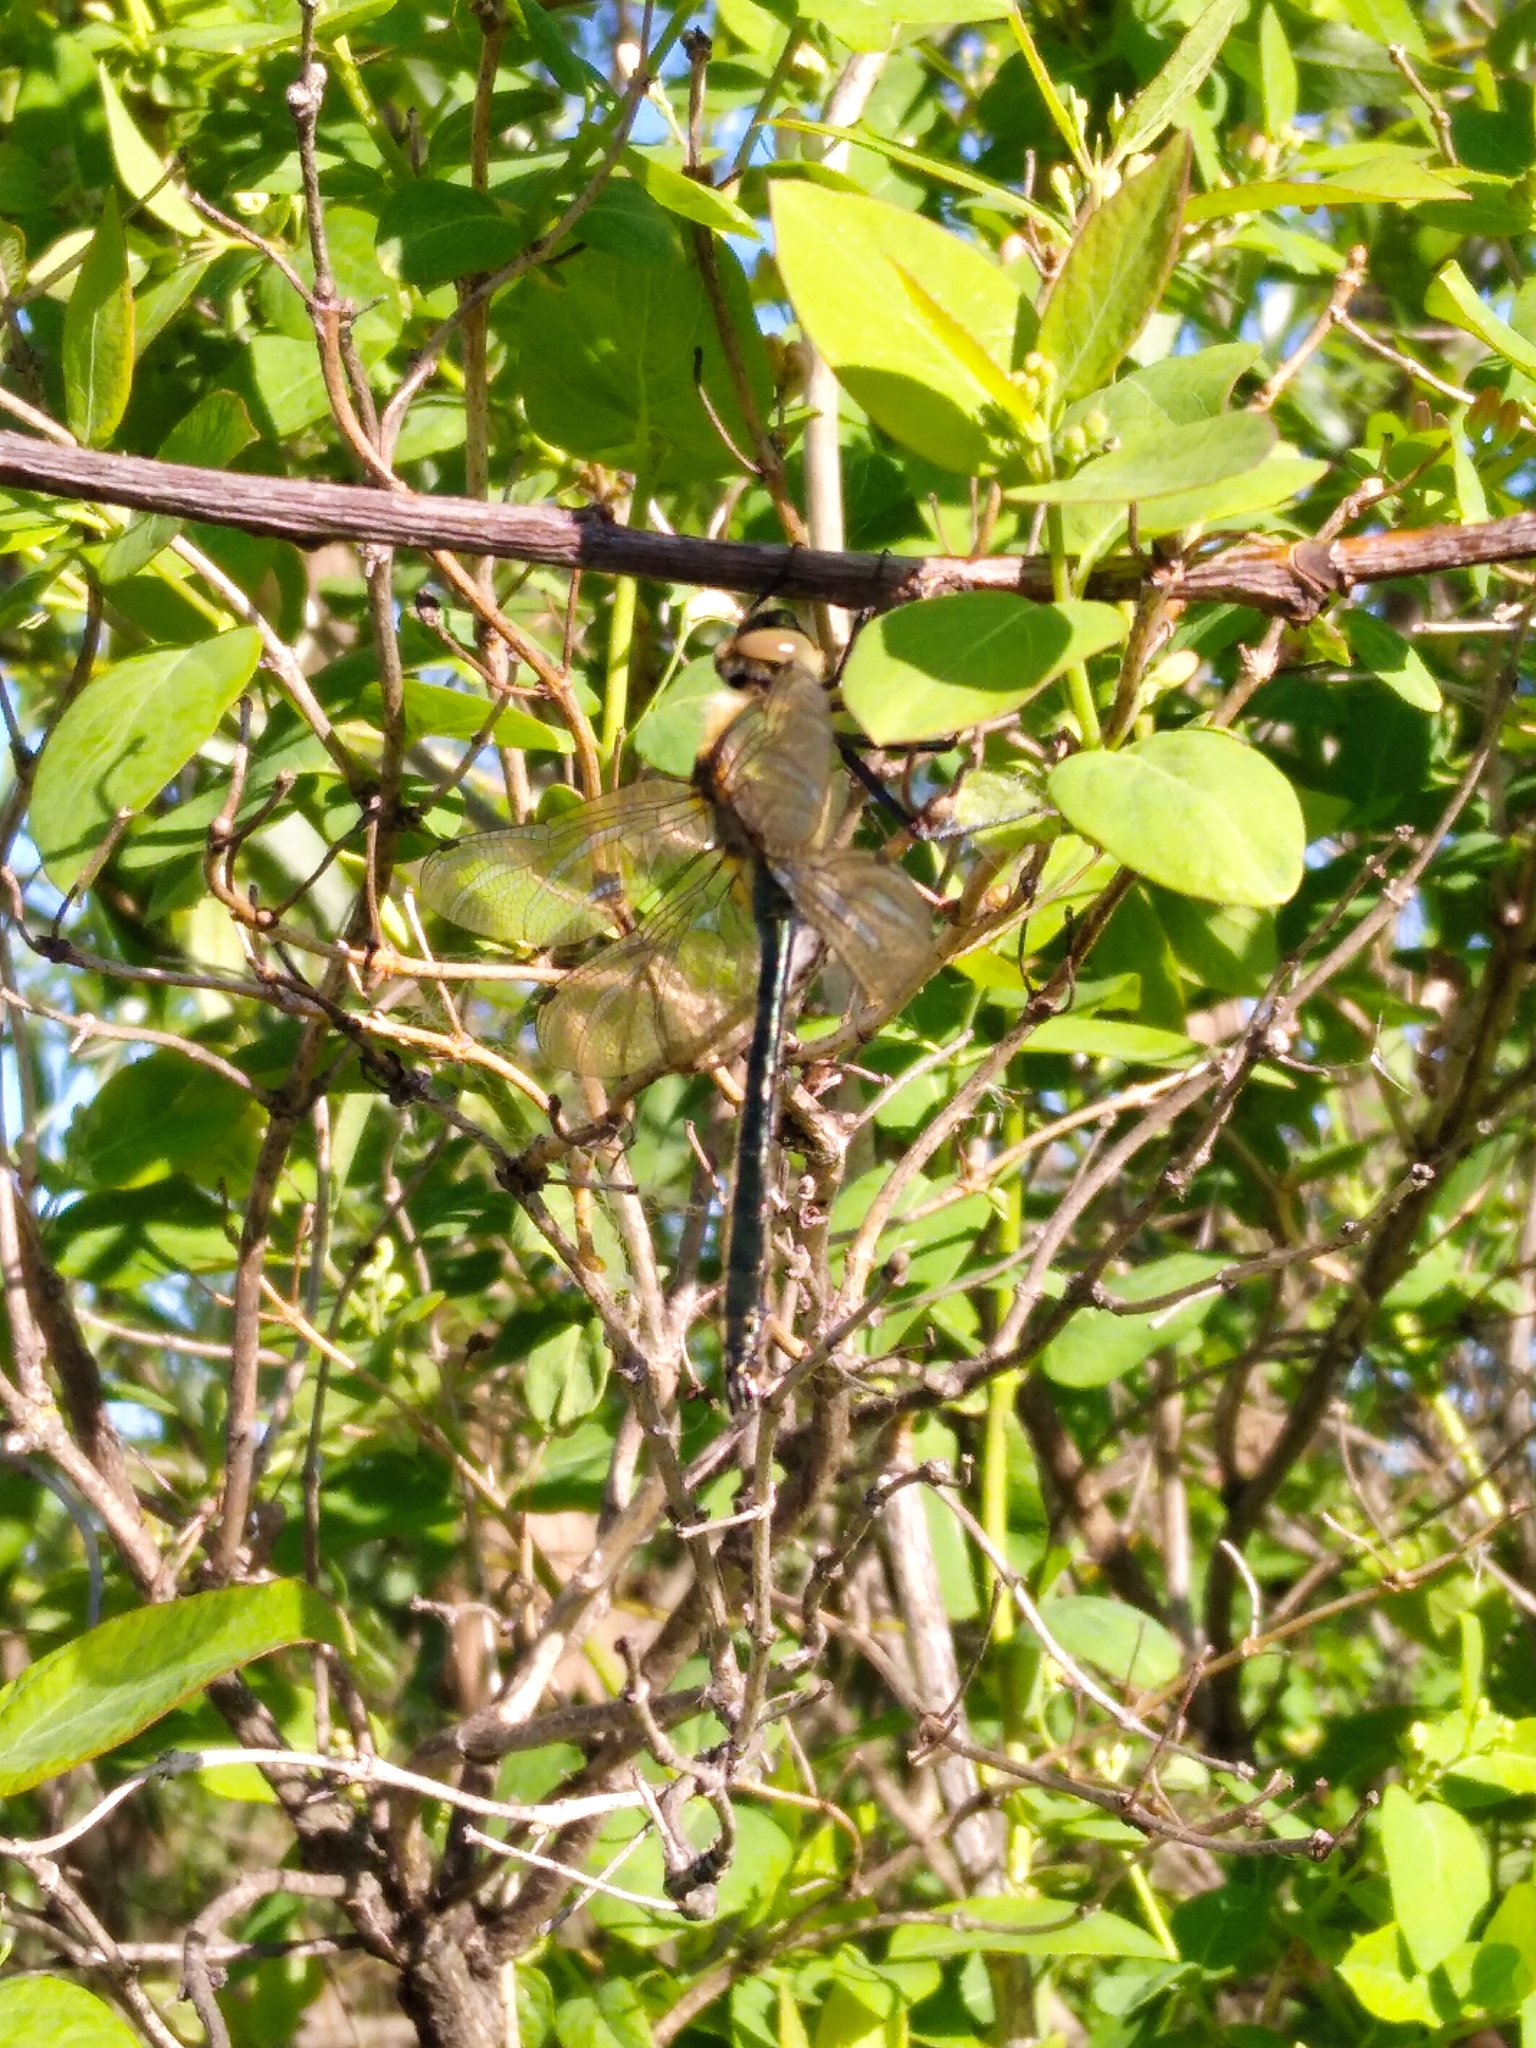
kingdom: Animalia
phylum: Arthropoda
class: Insecta
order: Odonata
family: Corduliidae
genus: Cordulia
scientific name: Cordulia aenea
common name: Downy emerald
